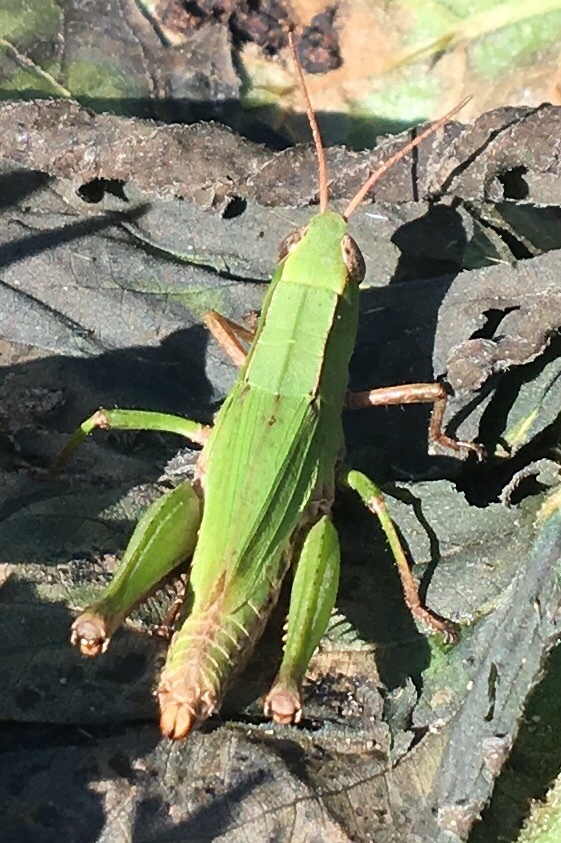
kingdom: Animalia
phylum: Arthropoda
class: Insecta
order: Orthoptera
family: Acrididae
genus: Dichromorpha
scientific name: Dichromorpha viridis
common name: Short-winged green grasshopper
